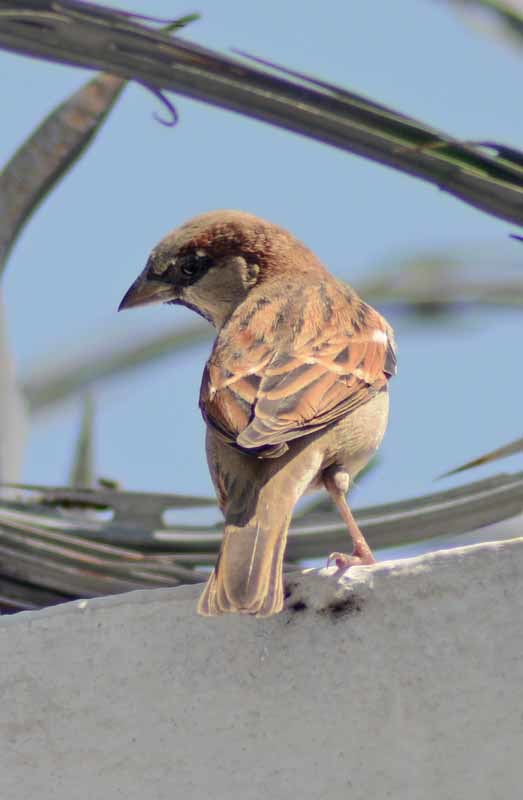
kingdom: Animalia
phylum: Chordata
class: Aves
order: Passeriformes
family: Passeridae
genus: Passer
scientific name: Passer domesticus
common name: House sparrow
